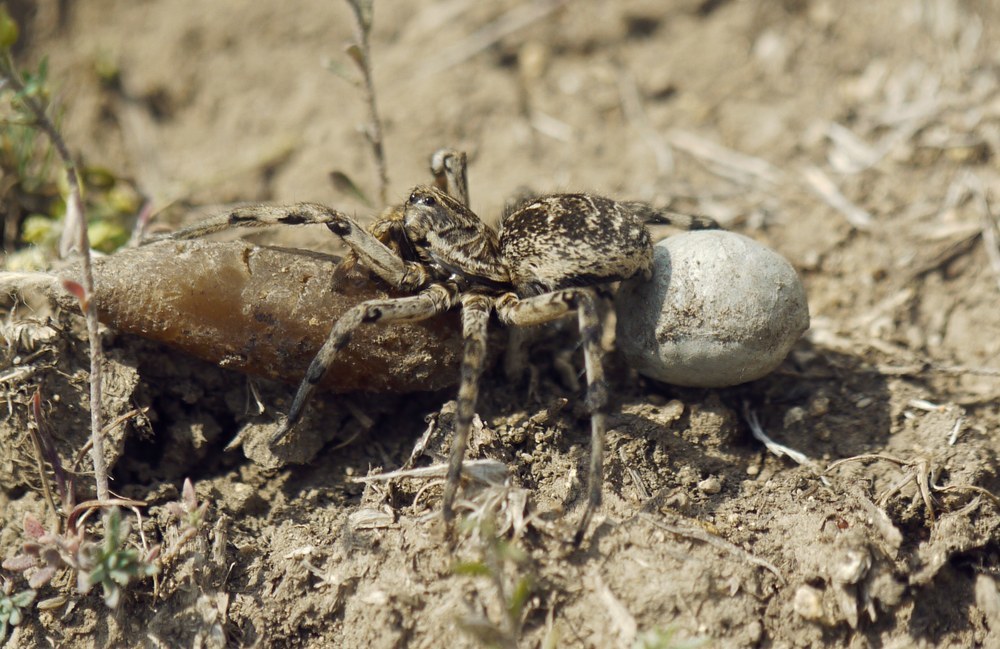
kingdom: Animalia
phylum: Arthropoda
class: Arachnida
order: Araneae
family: Lycosidae
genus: Geolycosa
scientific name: Geolycosa vultuosa
